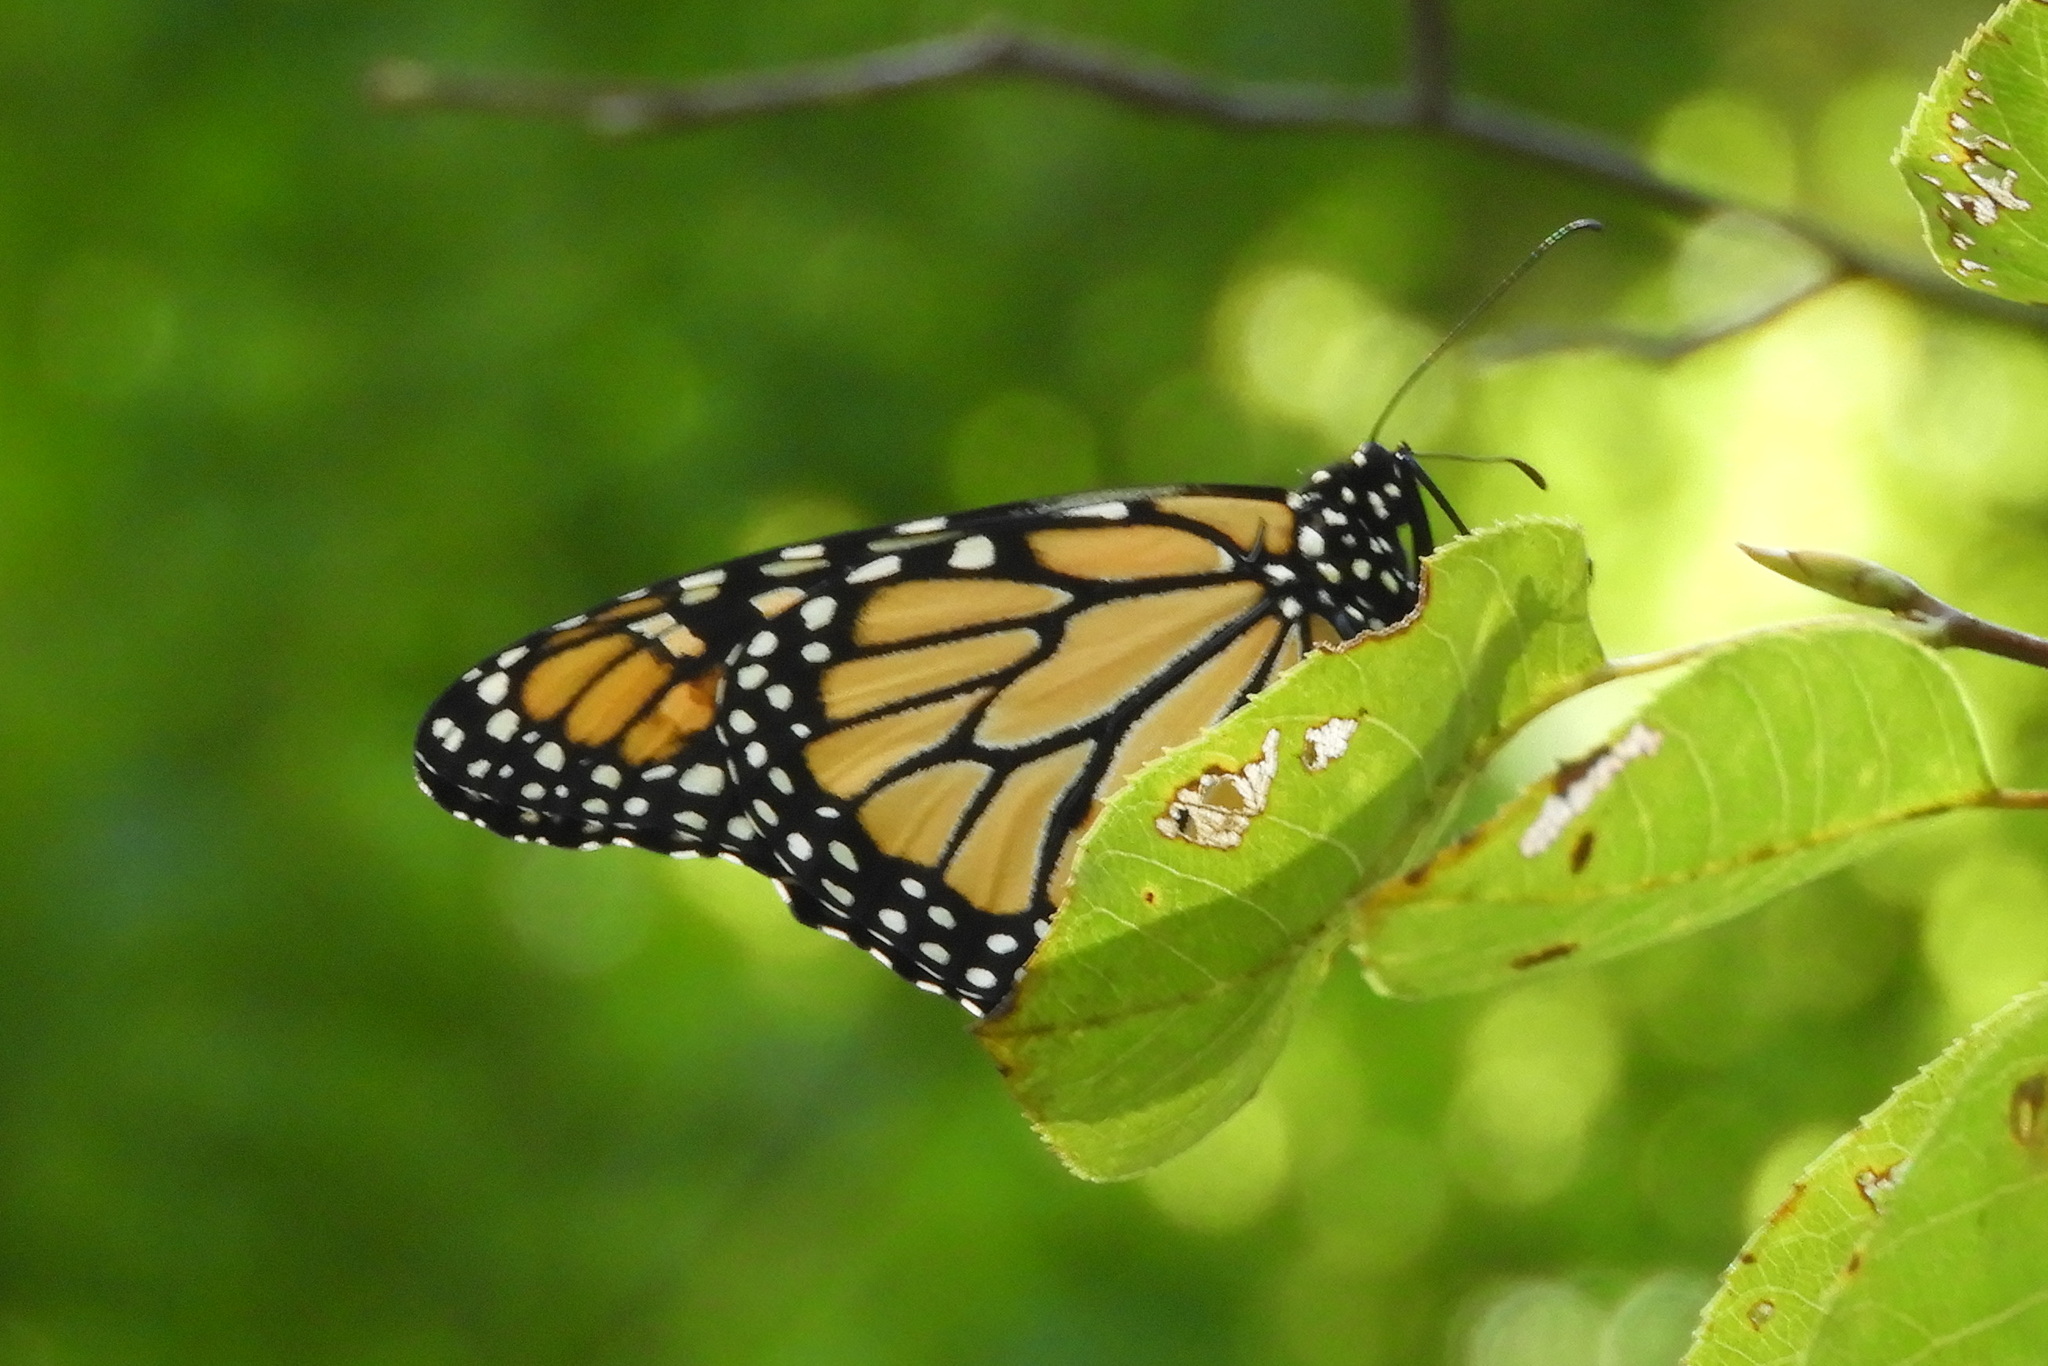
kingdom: Animalia
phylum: Arthropoda
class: Insecta
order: Lepidoptera
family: Nymphalidae
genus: Danaus
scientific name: Danaus plexippus
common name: Monarch
